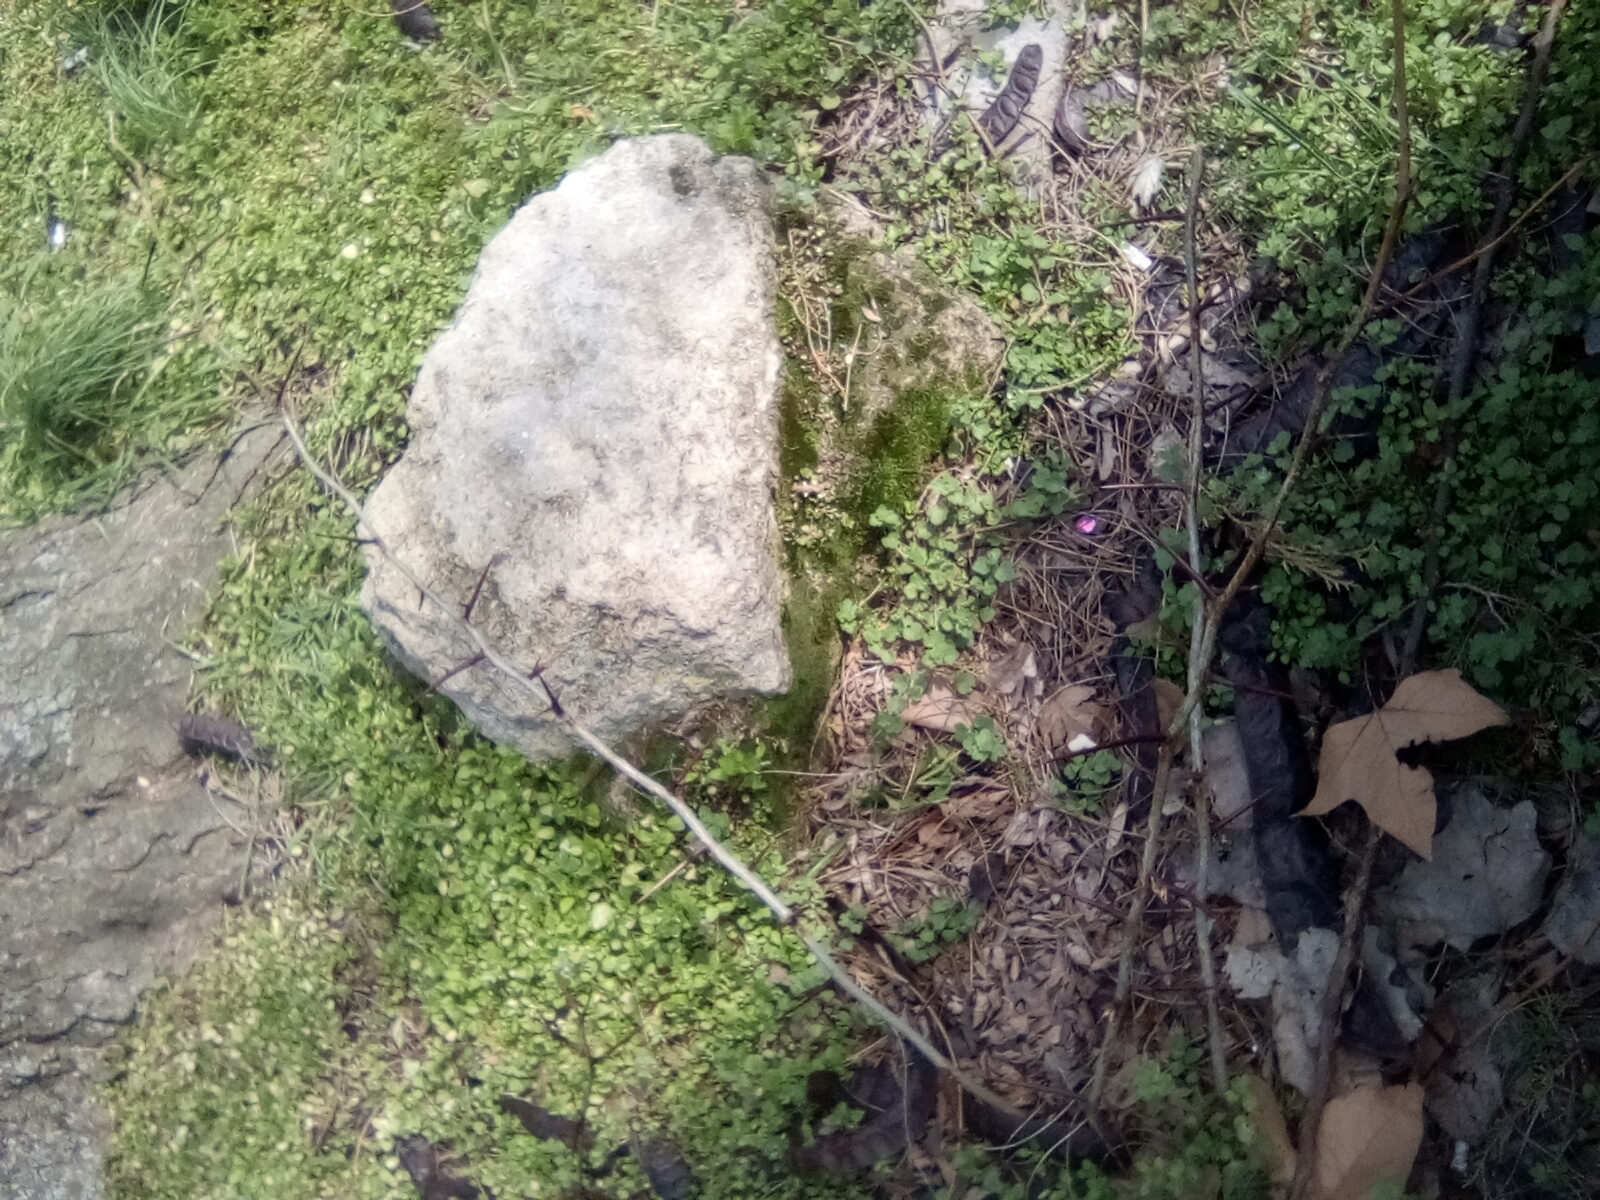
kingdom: Plantae
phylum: Tracheophyta
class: Magnoliopsida
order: Fabales
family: Fabaceae
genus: Gleditsia
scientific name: Gleditsia triacanthos
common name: Common honeylocust
